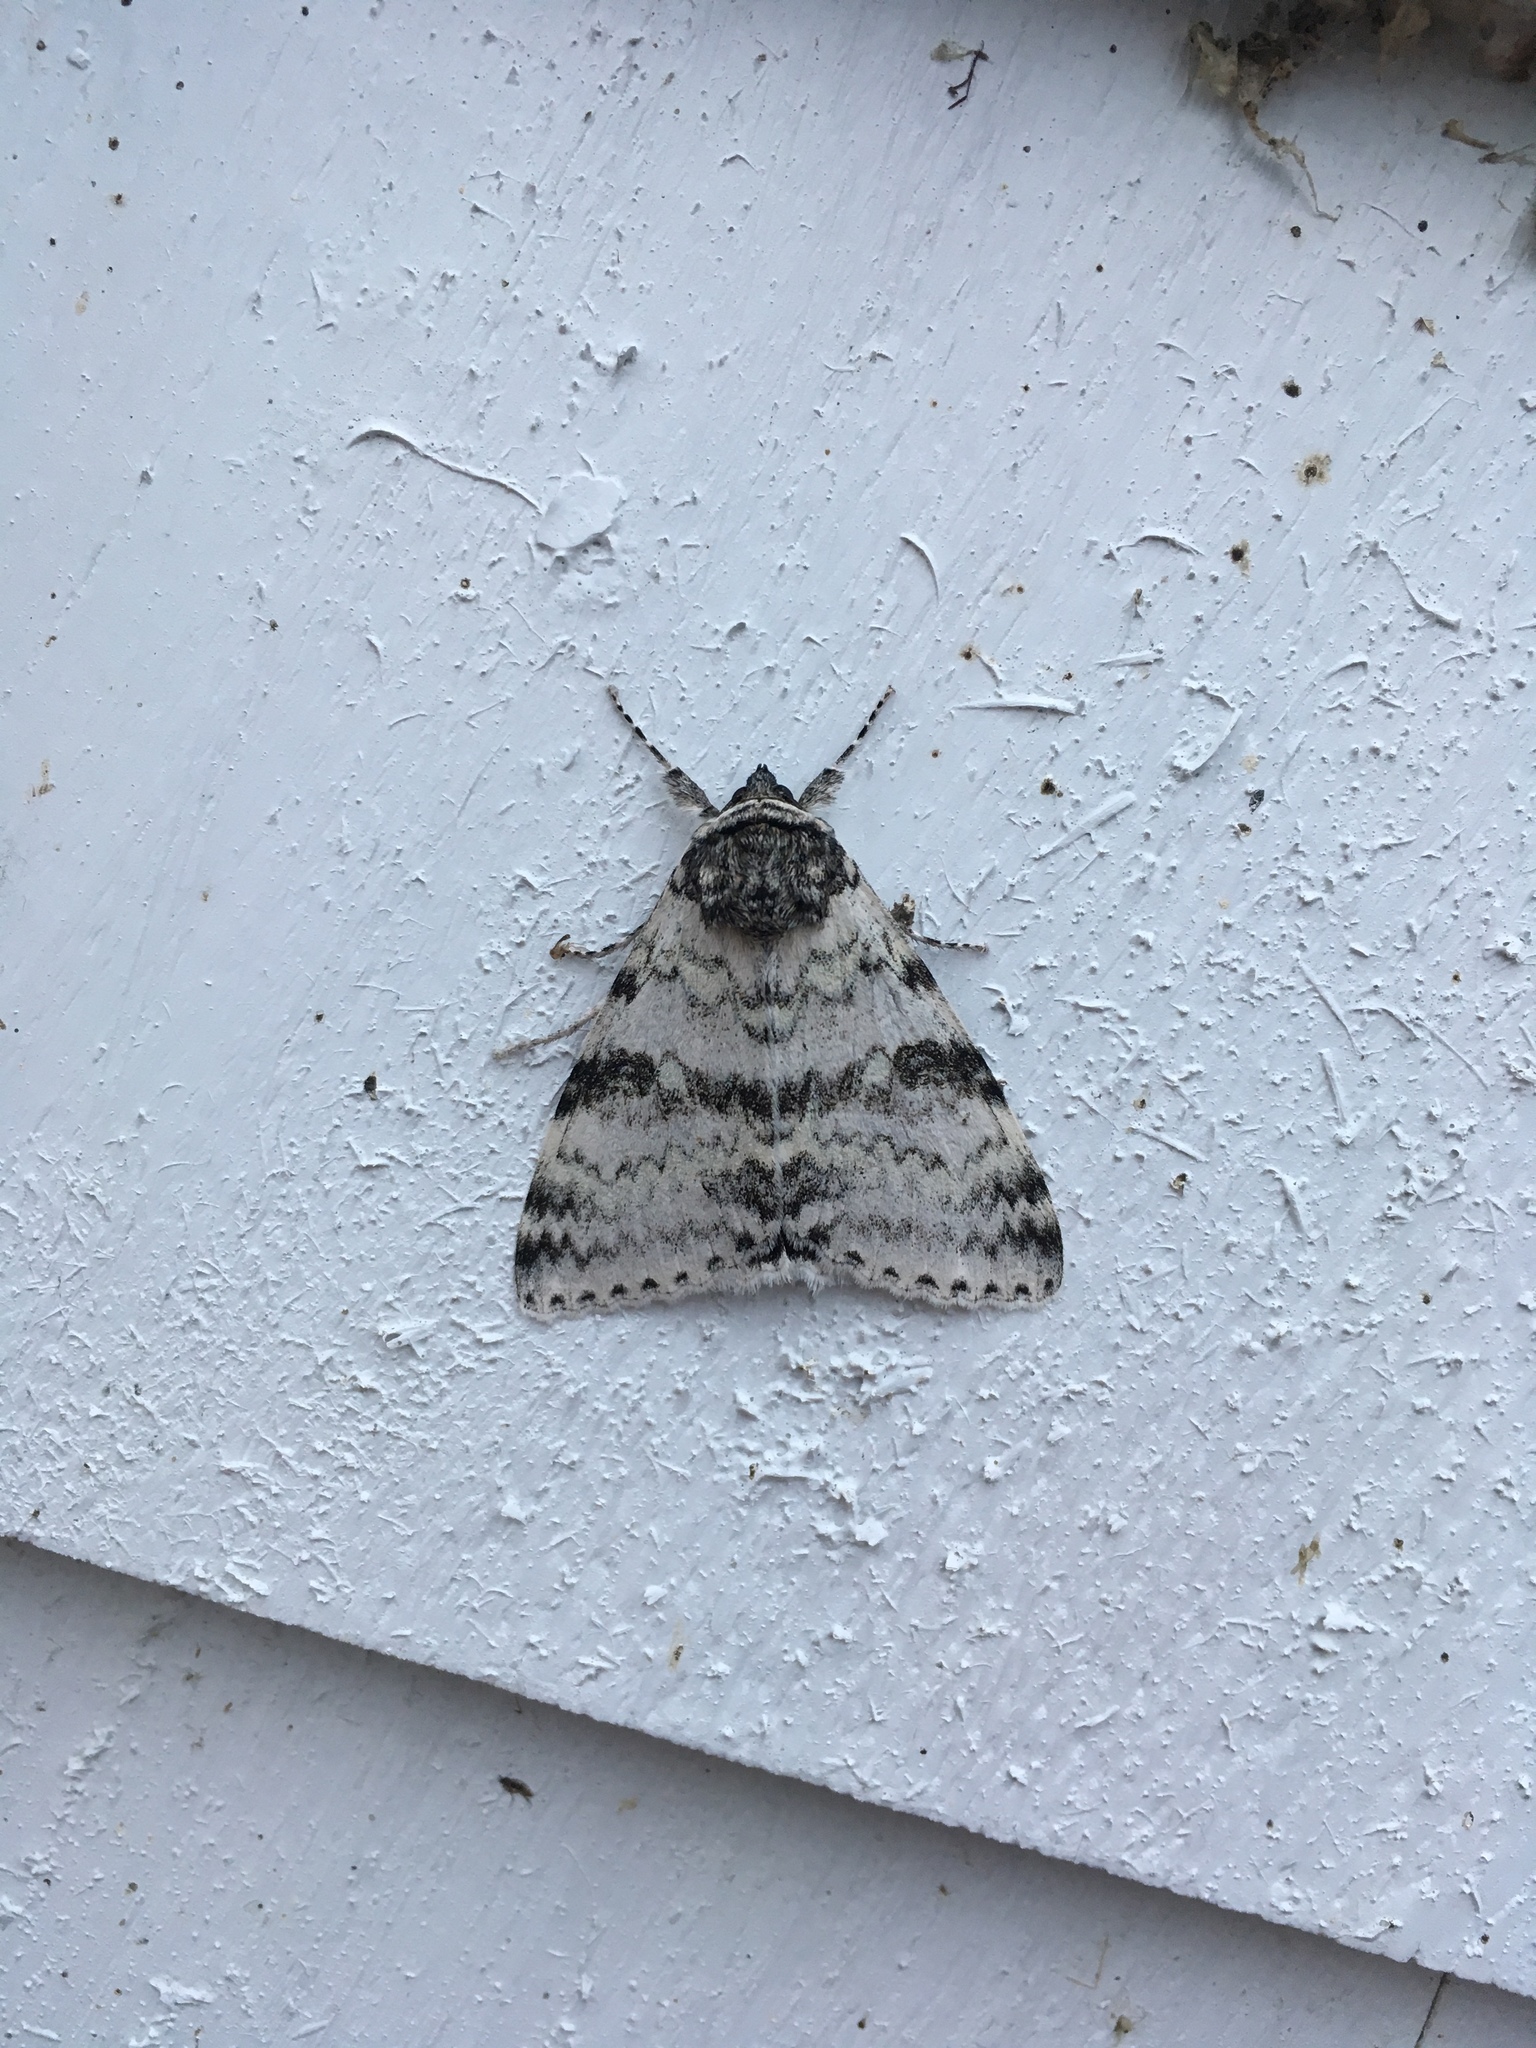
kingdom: Animalia
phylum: Arthropoda
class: Insecta
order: Lepidoptera
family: Erebidae
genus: Catocala
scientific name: Catocala relicta
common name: White underwing
